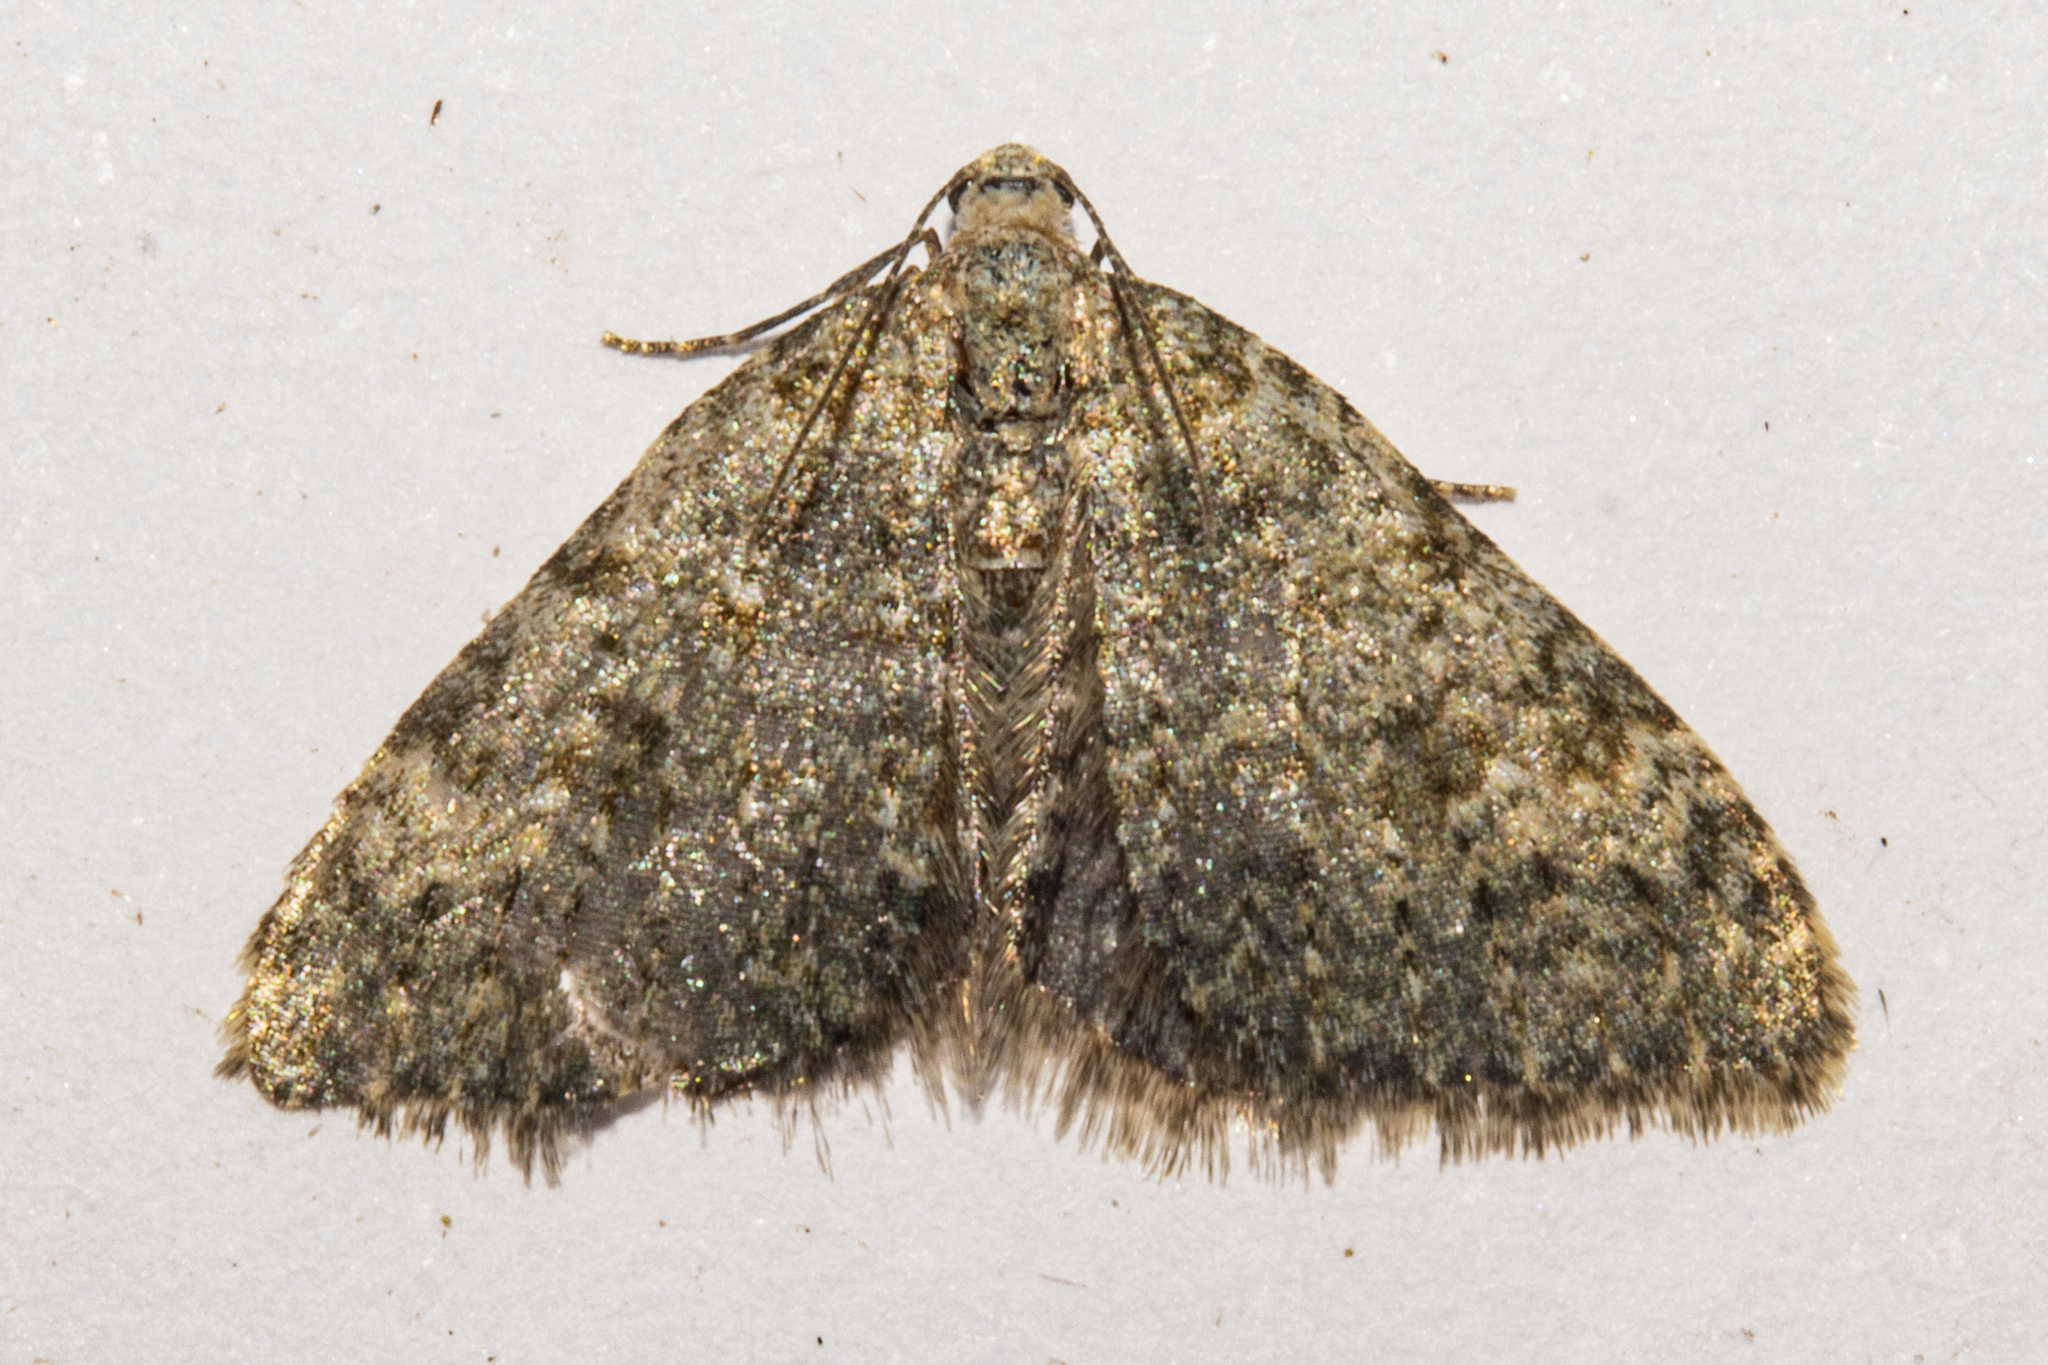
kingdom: Animalia
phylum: Arthropoda
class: Insecta
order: Lepidoptera
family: Geometridae
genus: Helastia
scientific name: Helastia plumbea
